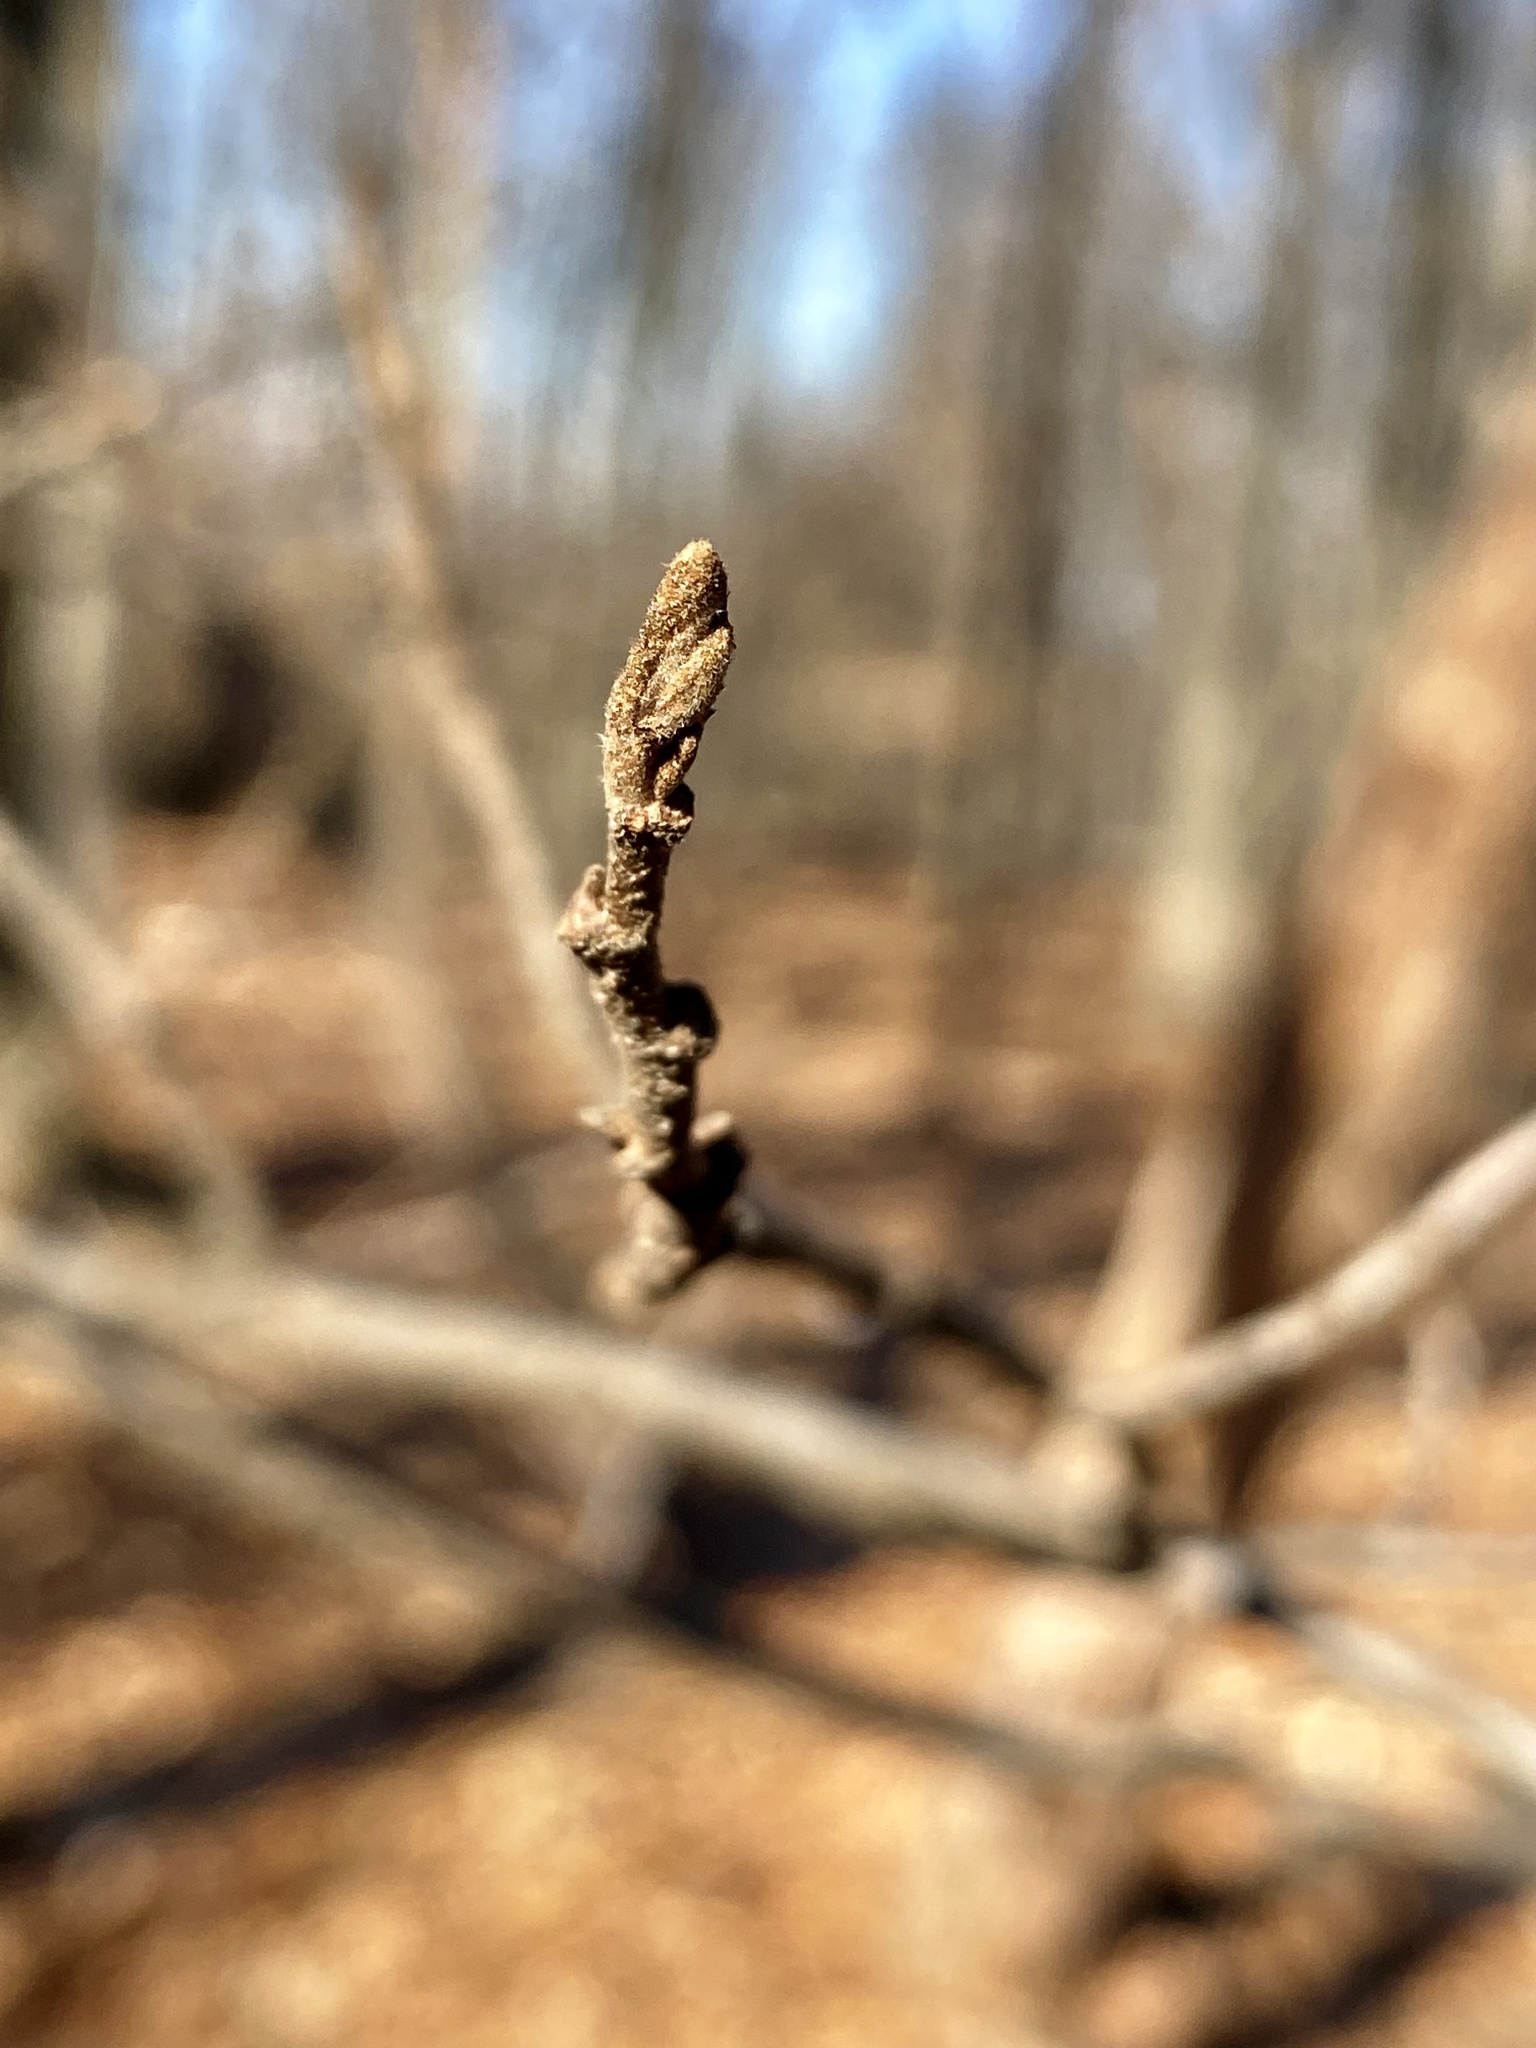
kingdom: Plantae
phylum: Tracheophyta
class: Magnoliopsida
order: Saxifragales
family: Hamamelidaceae
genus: Hamamelis
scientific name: Hamamelis virginiana
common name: Witch-hazel
